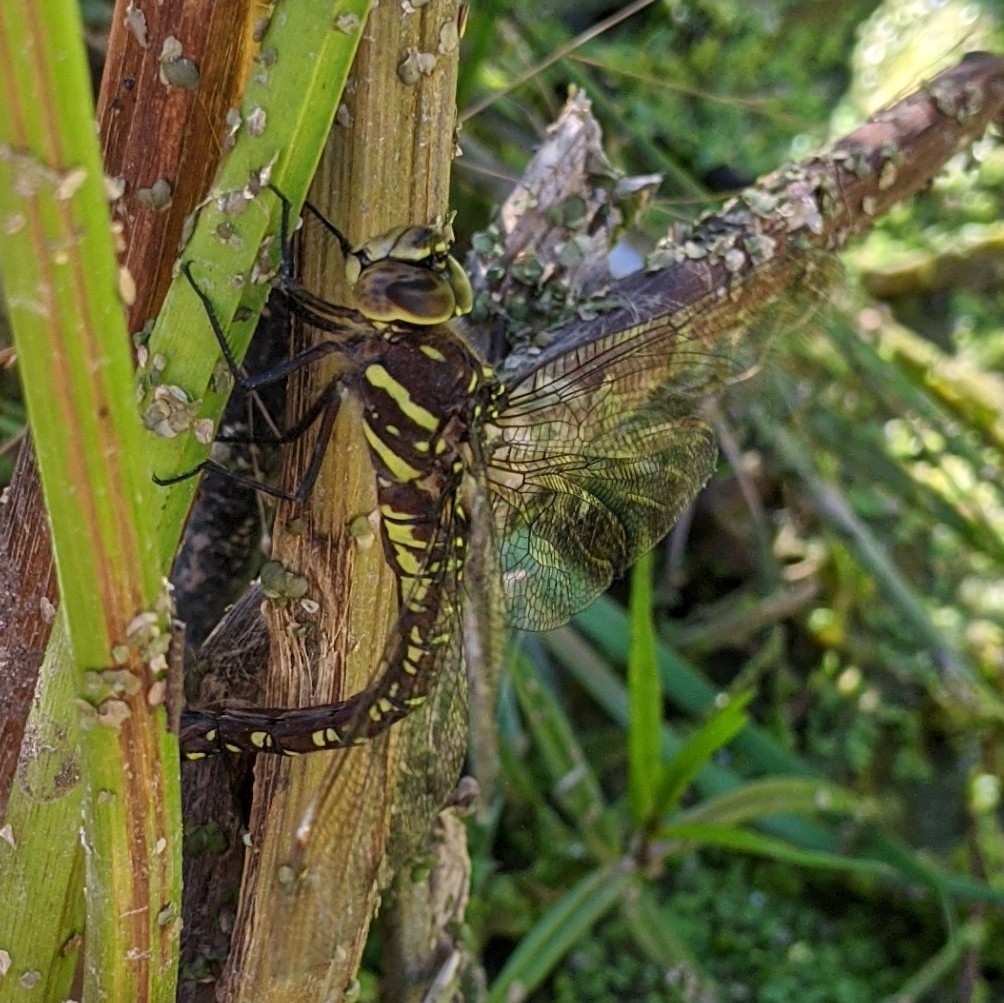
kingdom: Animalia
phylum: Arthropoda
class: Insecta
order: Odonata
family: Aeshnidae
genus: Aeshna
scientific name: Aeshna palmata
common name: Paddle-tailed darner
